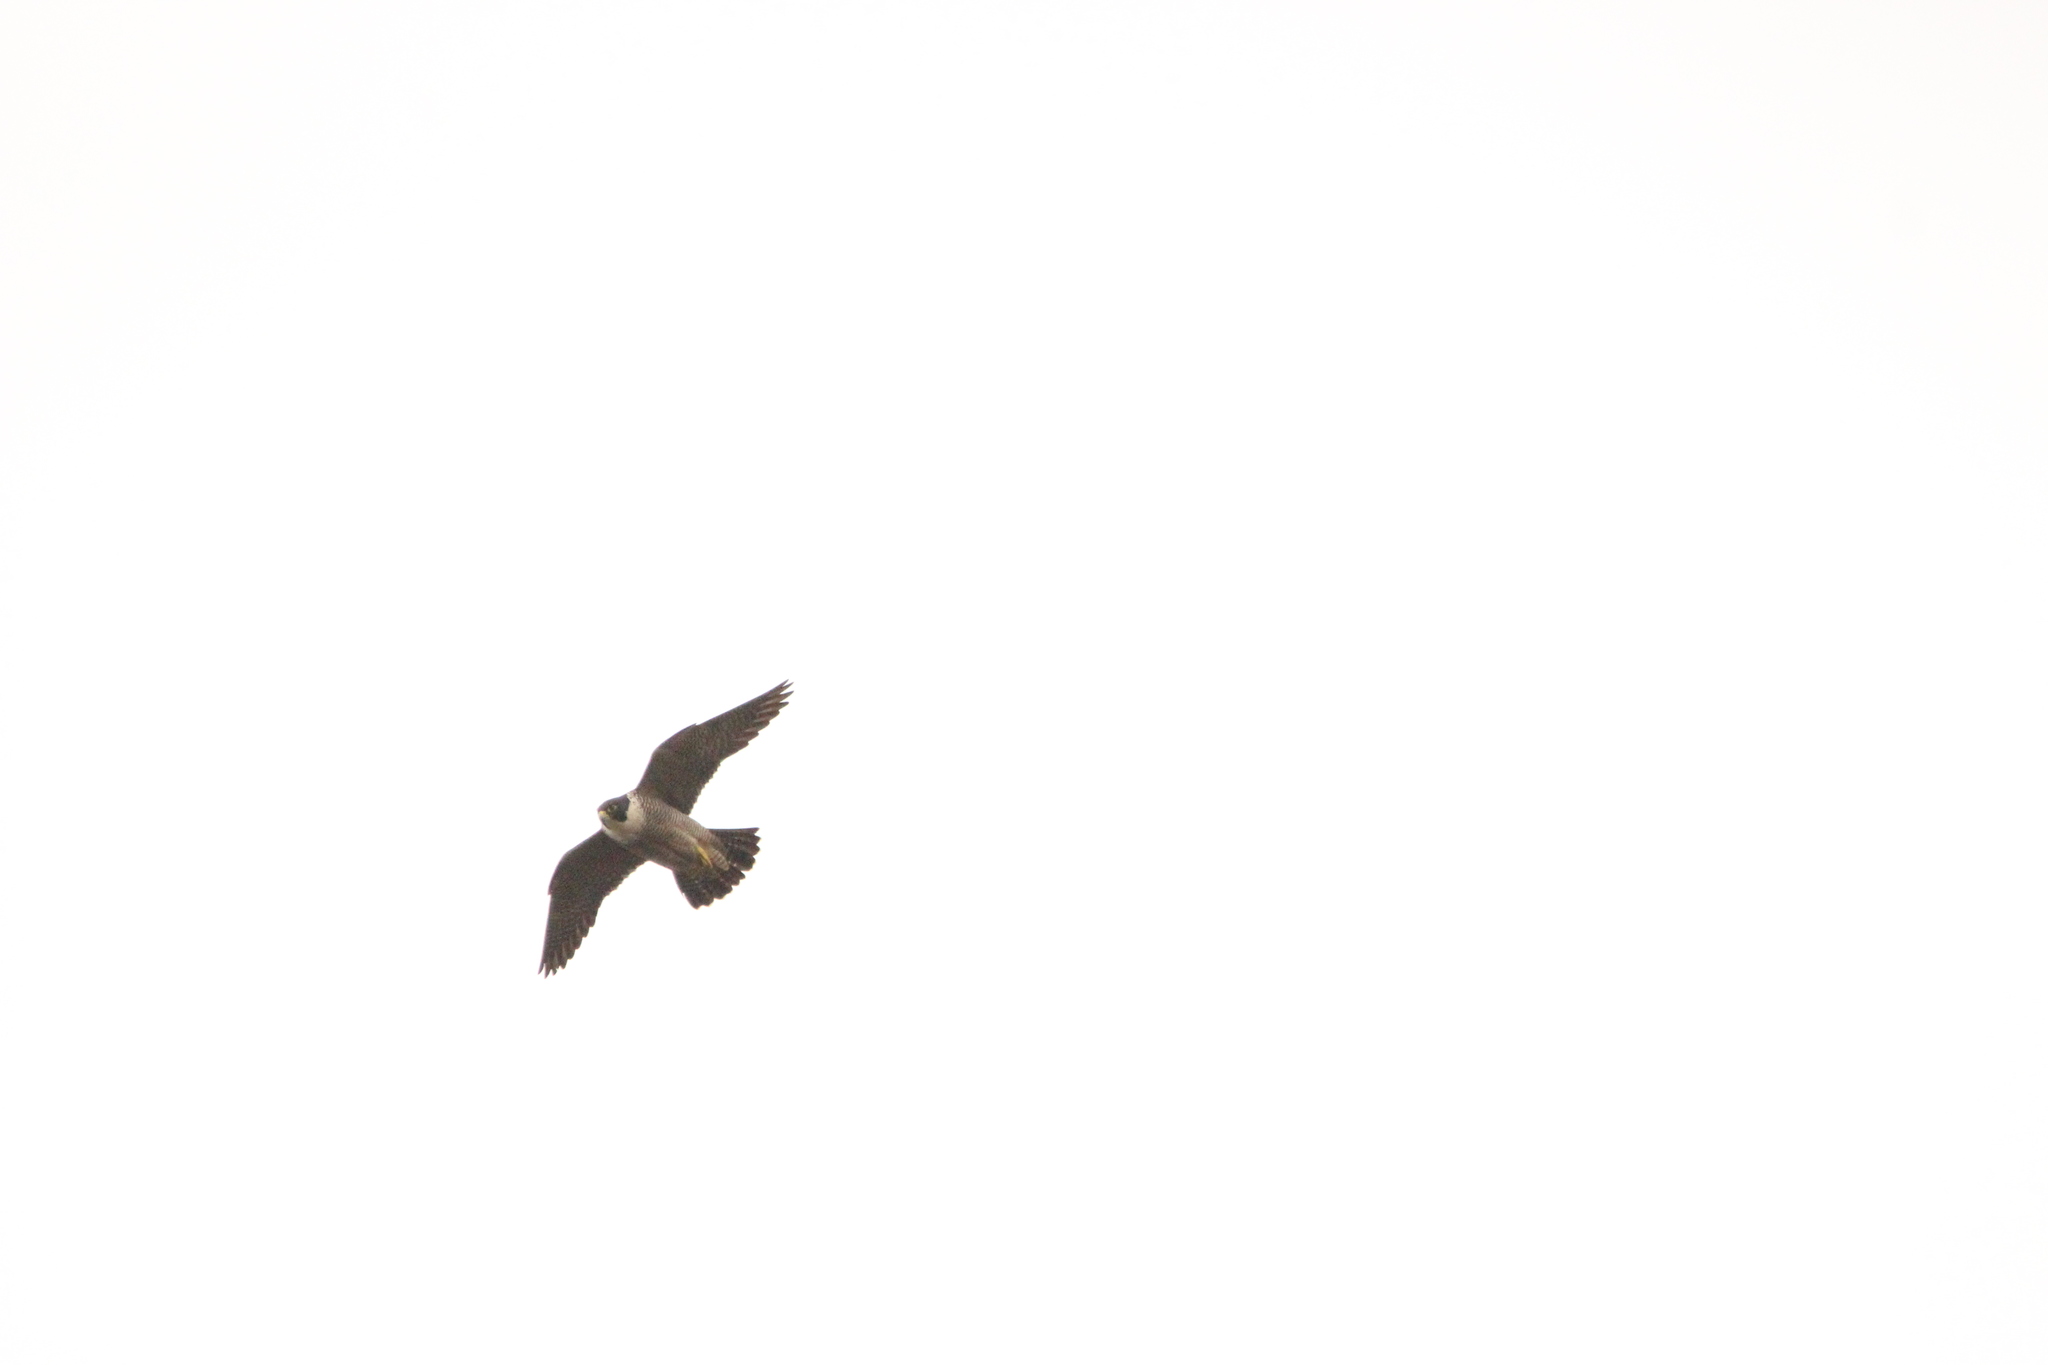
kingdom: Animalia
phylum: Chordata
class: Aves
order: Falconiformes
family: Falconidae
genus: Falco
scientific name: Falco peregrinus
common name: Peregrine falcon
